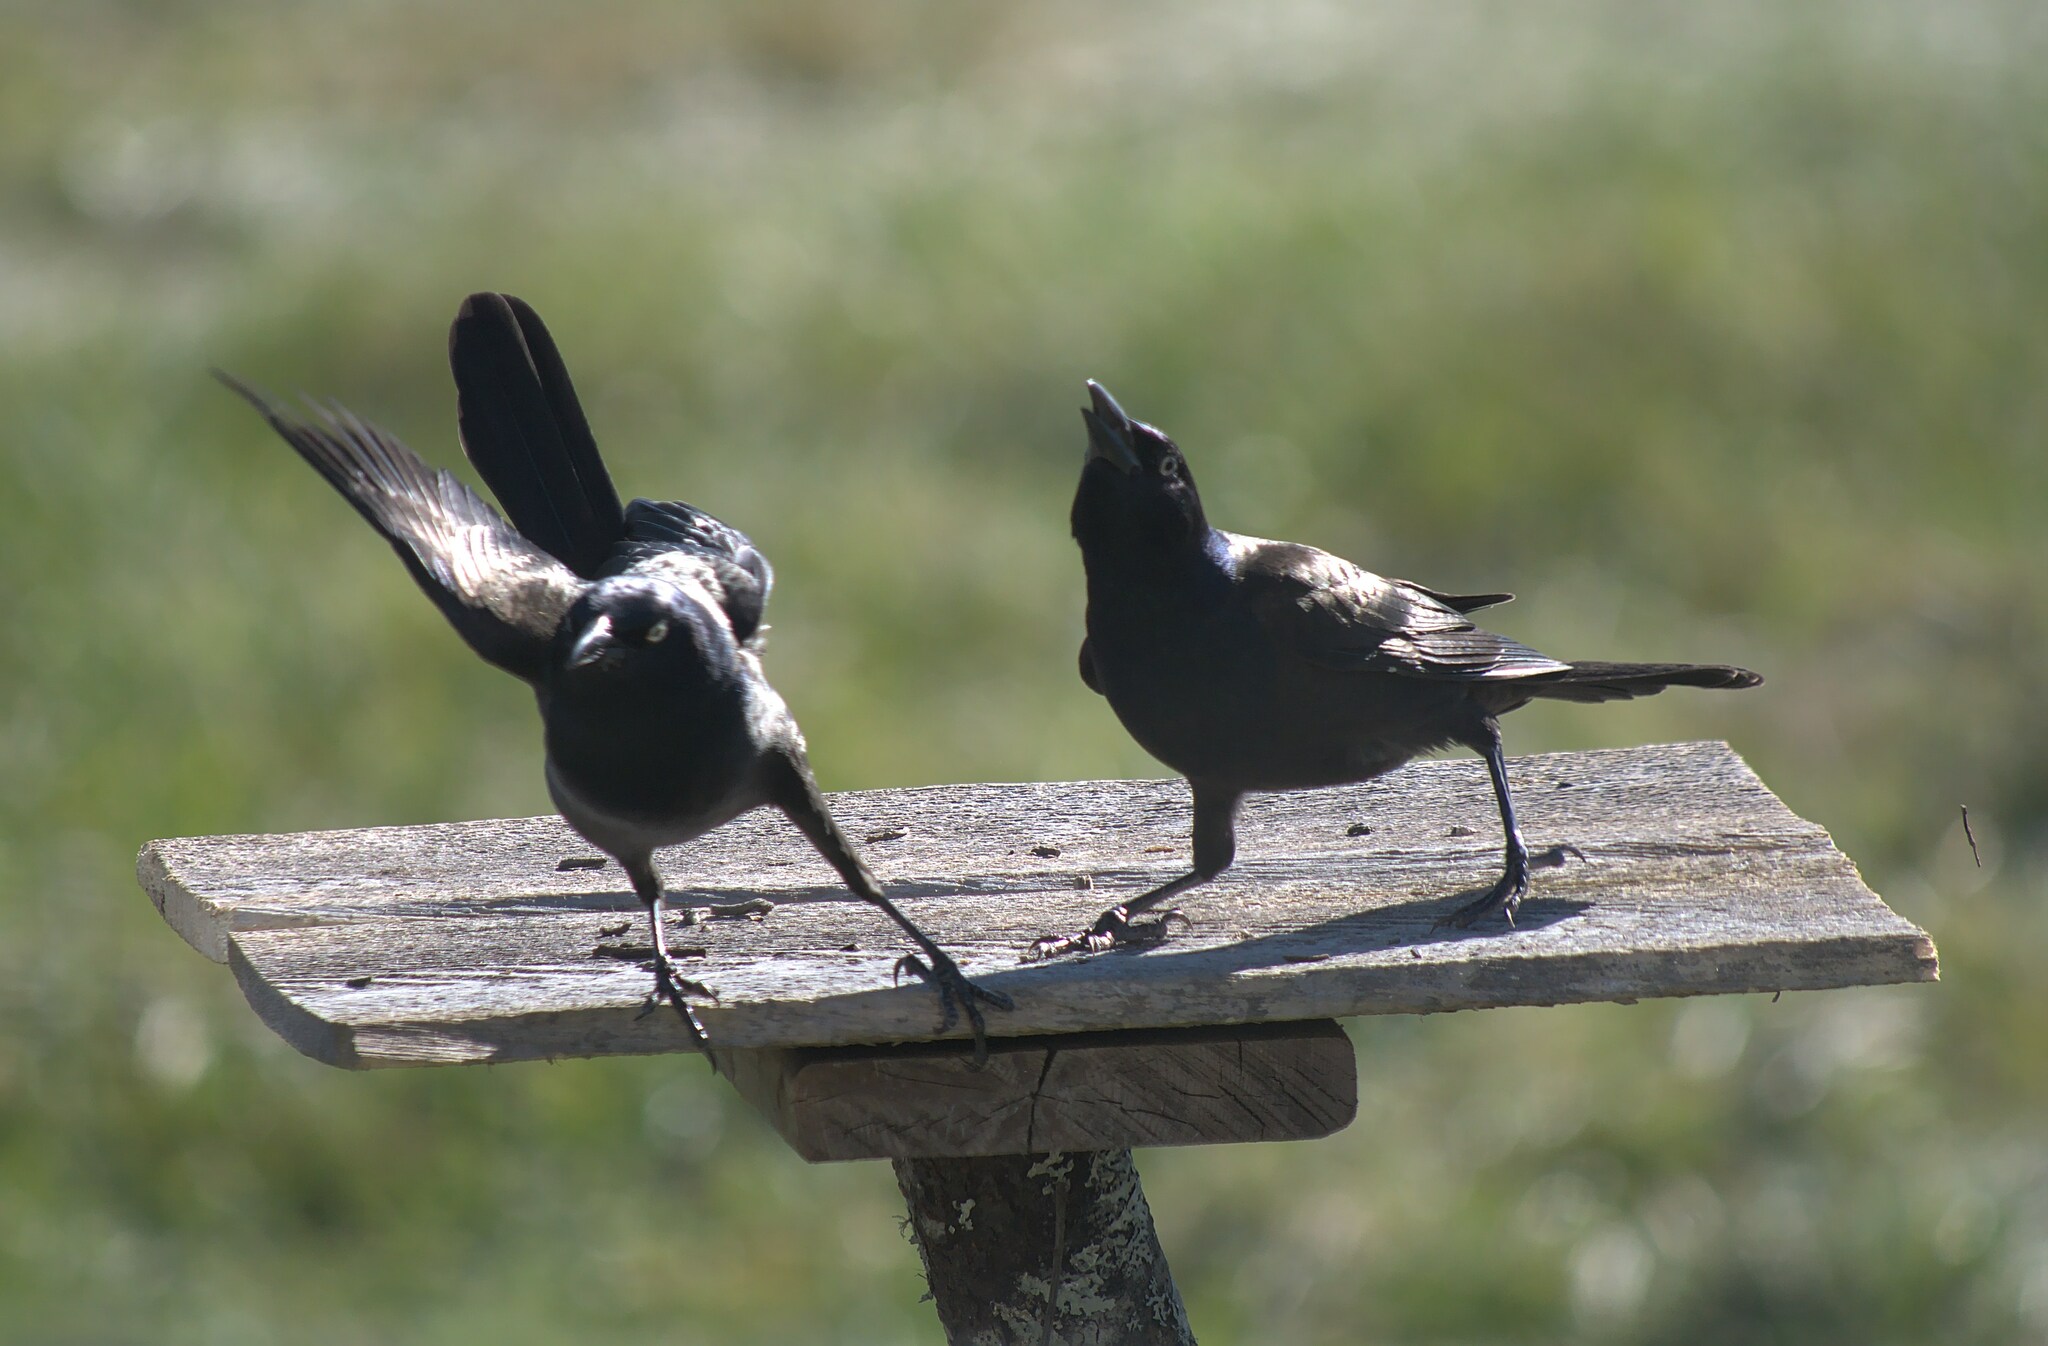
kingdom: Animalia
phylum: Chordata
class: Aves
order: Passeriformes
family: Icteridae
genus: Quiscalus
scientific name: Quiscalus quiscula
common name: Common grackle
